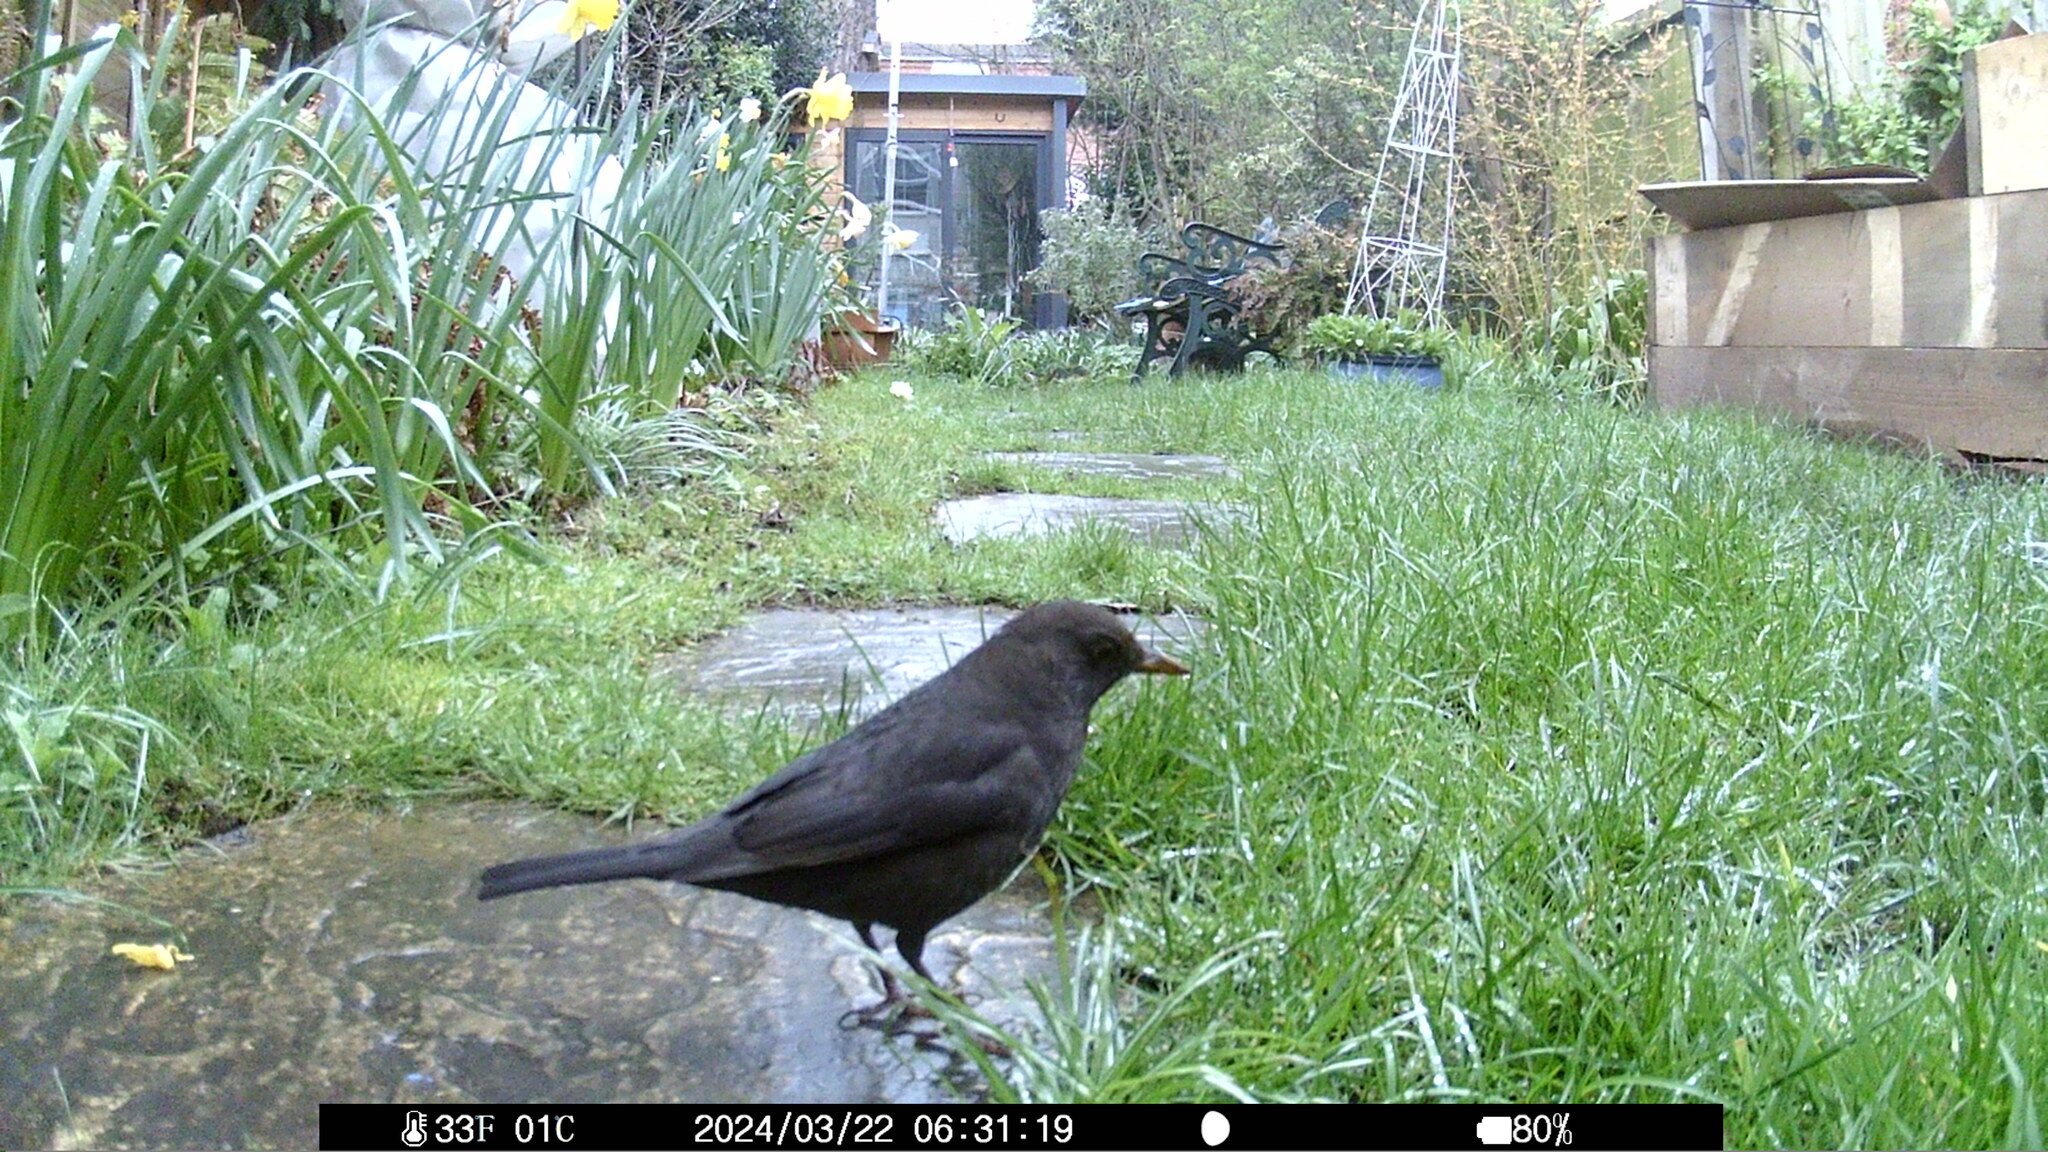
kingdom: Animalia
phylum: Chordata
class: Aves
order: Passeriformes
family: Turdidae
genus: Turdus
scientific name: Turdus merula
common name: Common blackbird
